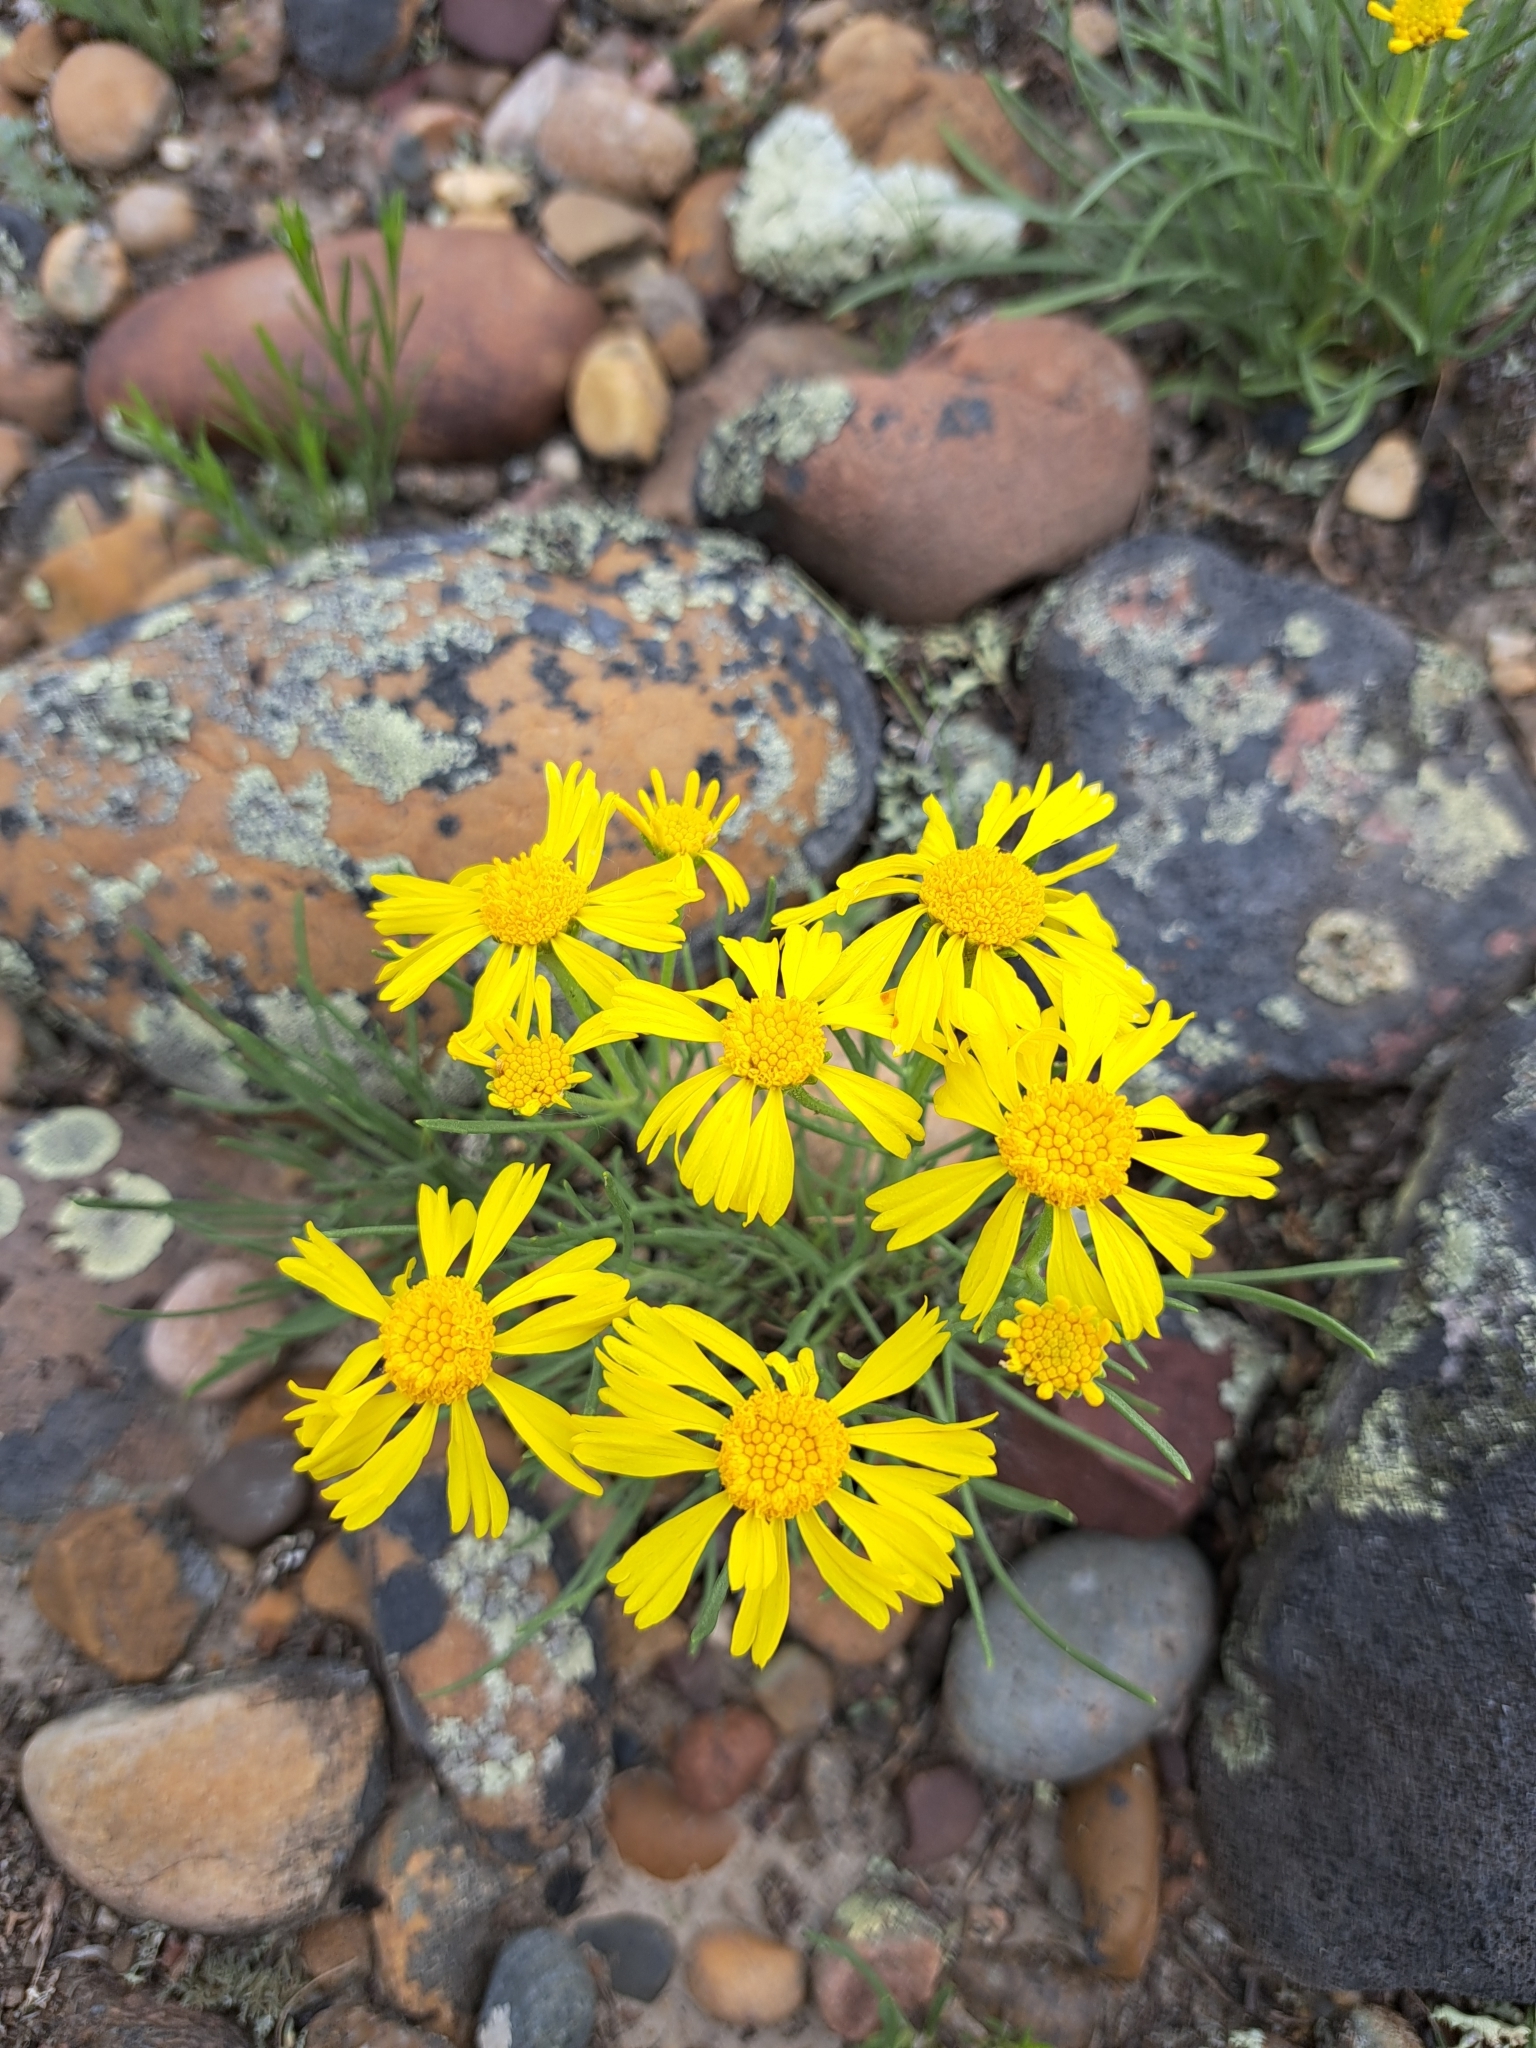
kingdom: Plantae
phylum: Tracheophyta
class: Magnoliopsida
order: Asterales
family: Asteraceae
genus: Hymenoxys
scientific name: Hymenoxys richardsonii
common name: Pingue rubberweed
